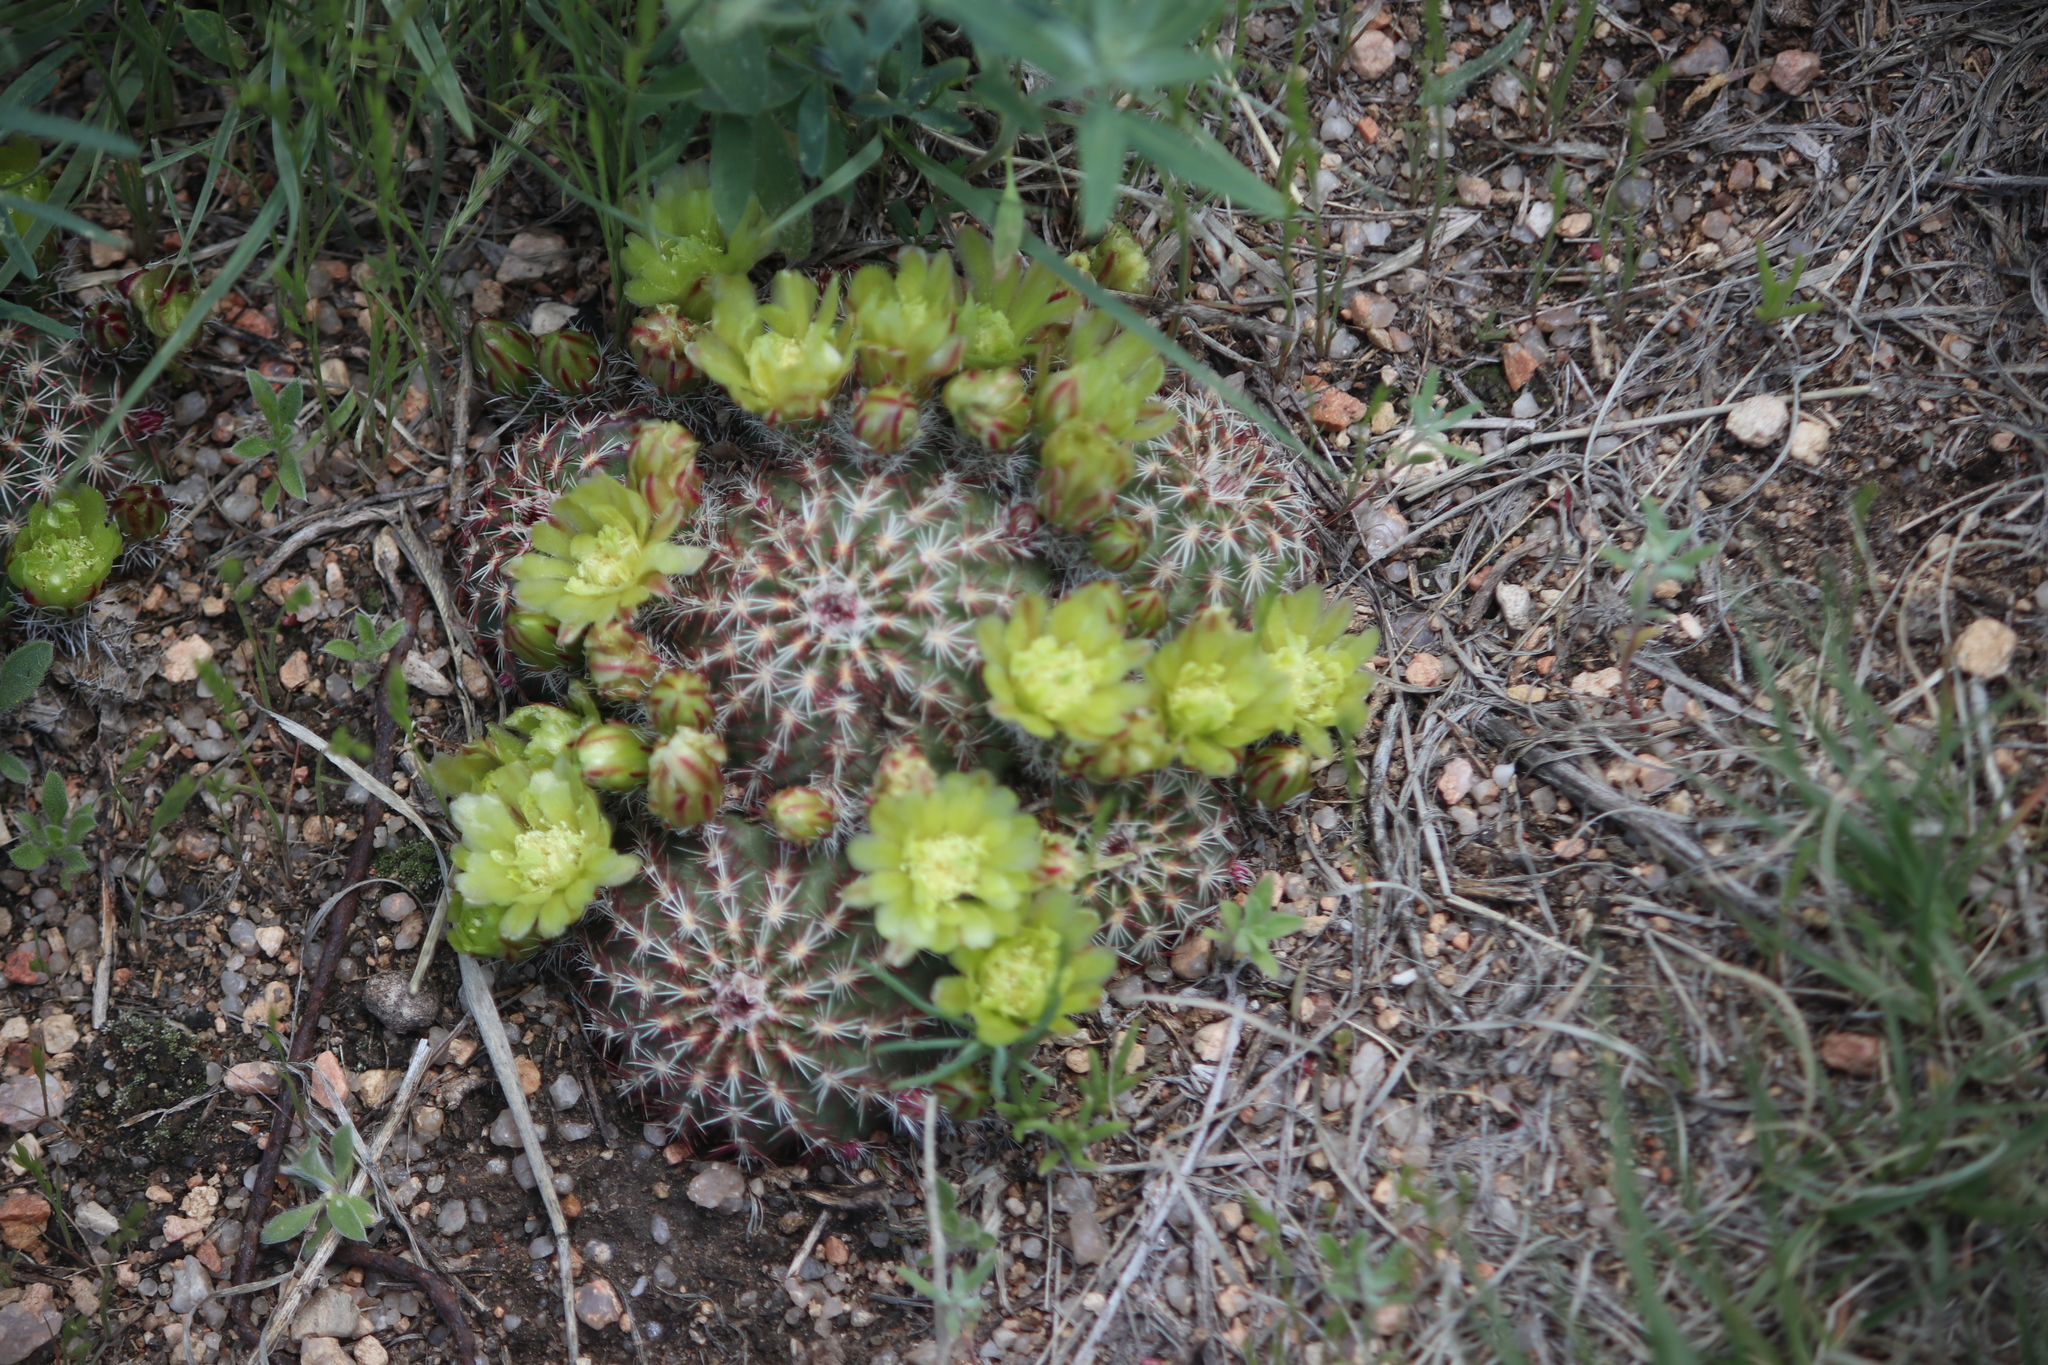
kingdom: Plantae
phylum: Tracheophyta
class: Magnoliopsida
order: Caryophyllales
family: Cactaceae
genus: Echinocereus
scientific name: Echinocereus viridiflorus
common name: Nylon hedgehog cactus
